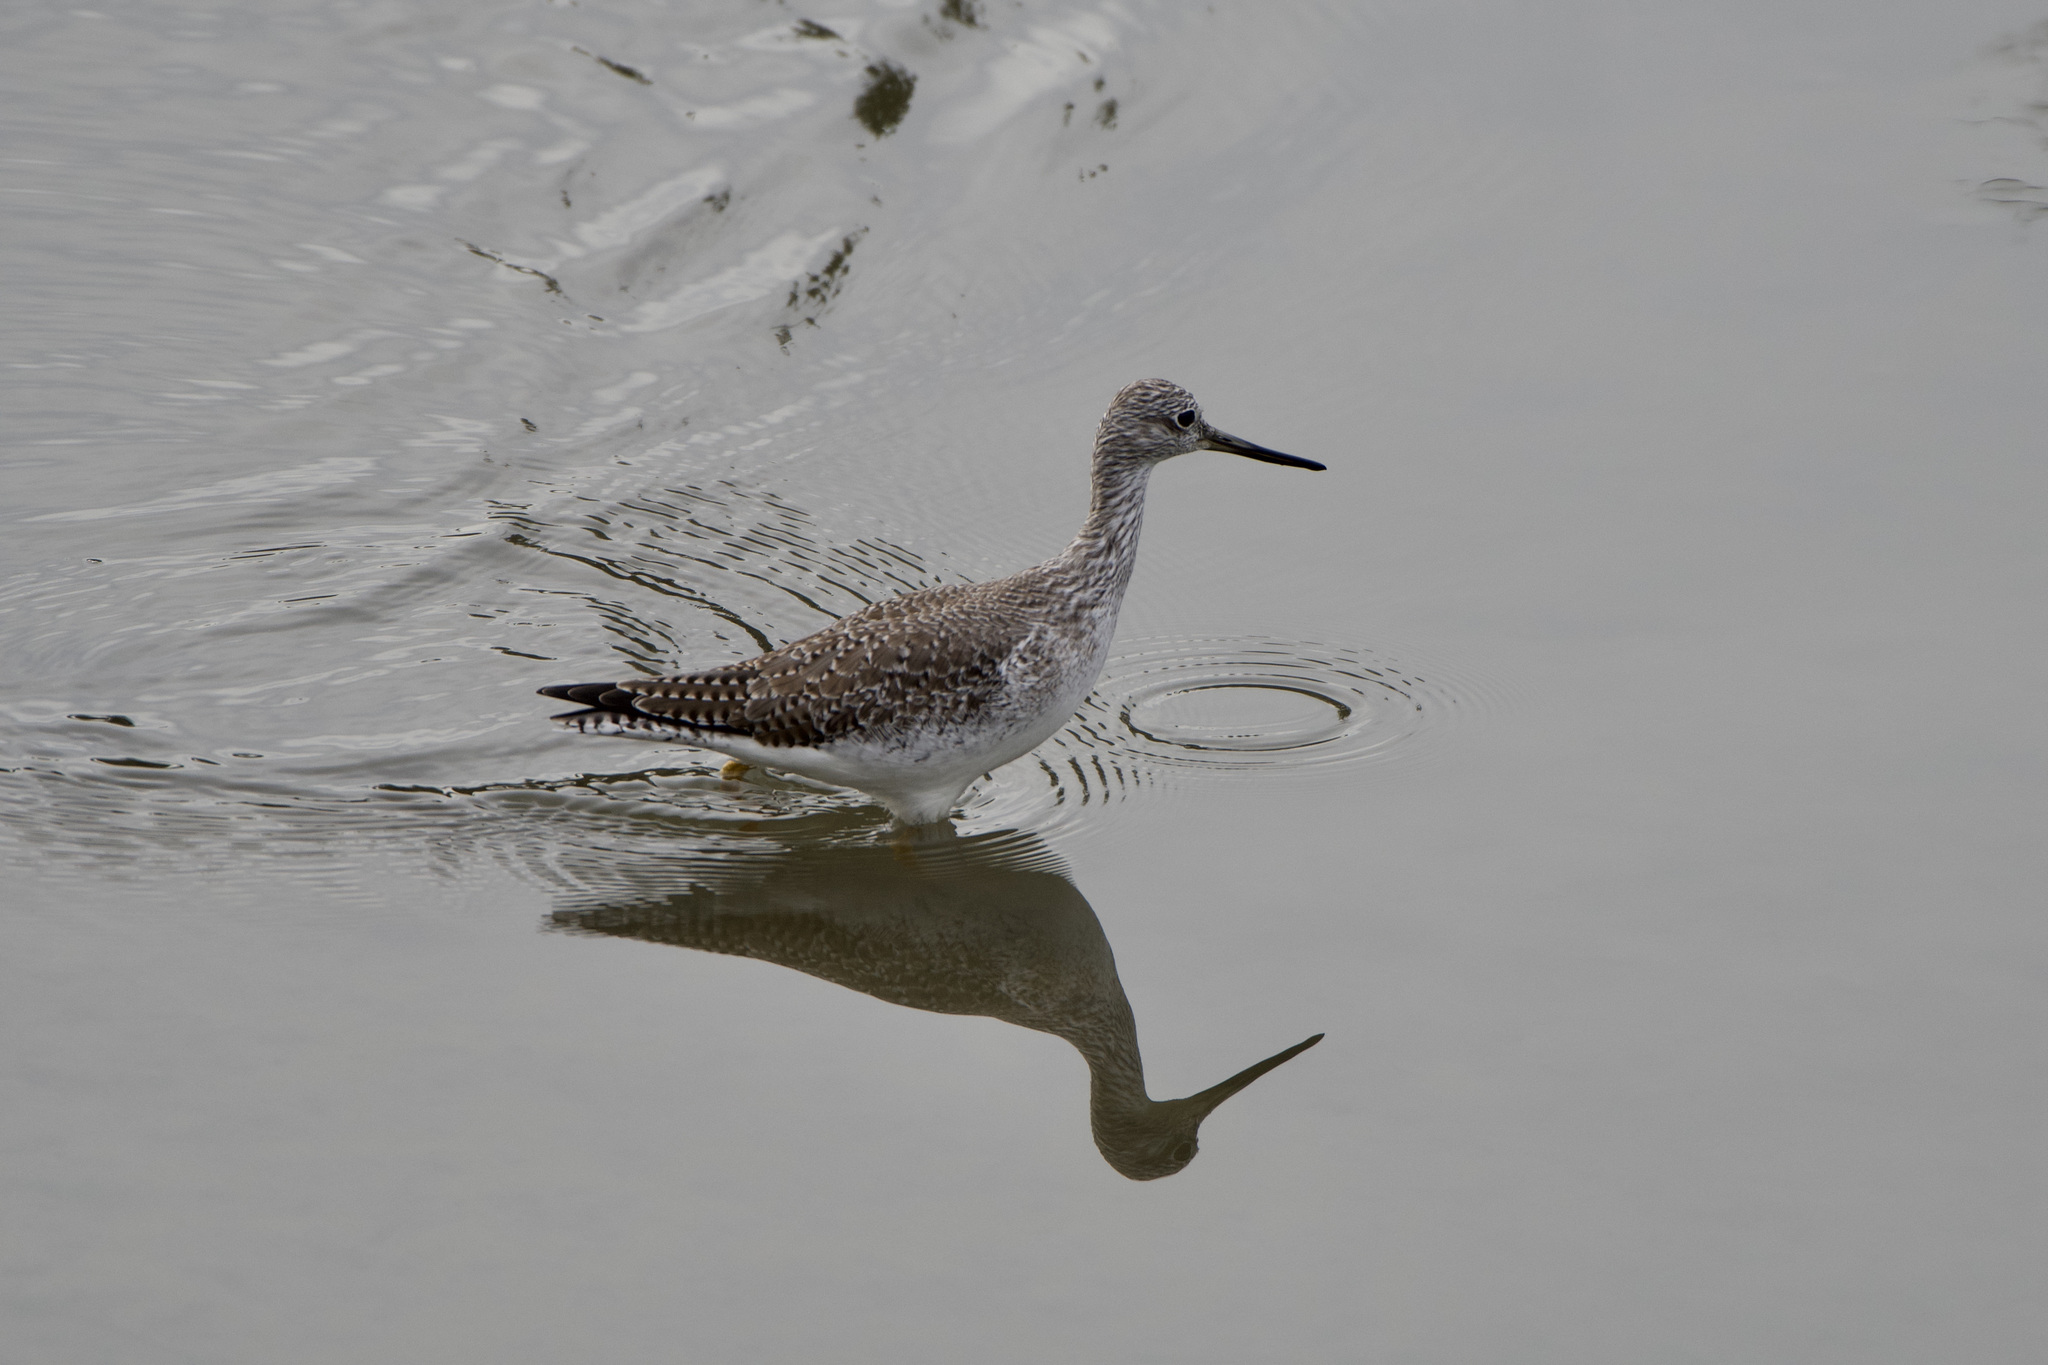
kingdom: Animalia
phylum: Chordata
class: Aves
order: Charadriiformes
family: Scolopacidae
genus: Tringa
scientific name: Tringa melanoleuca
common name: Greater yellowlegs
